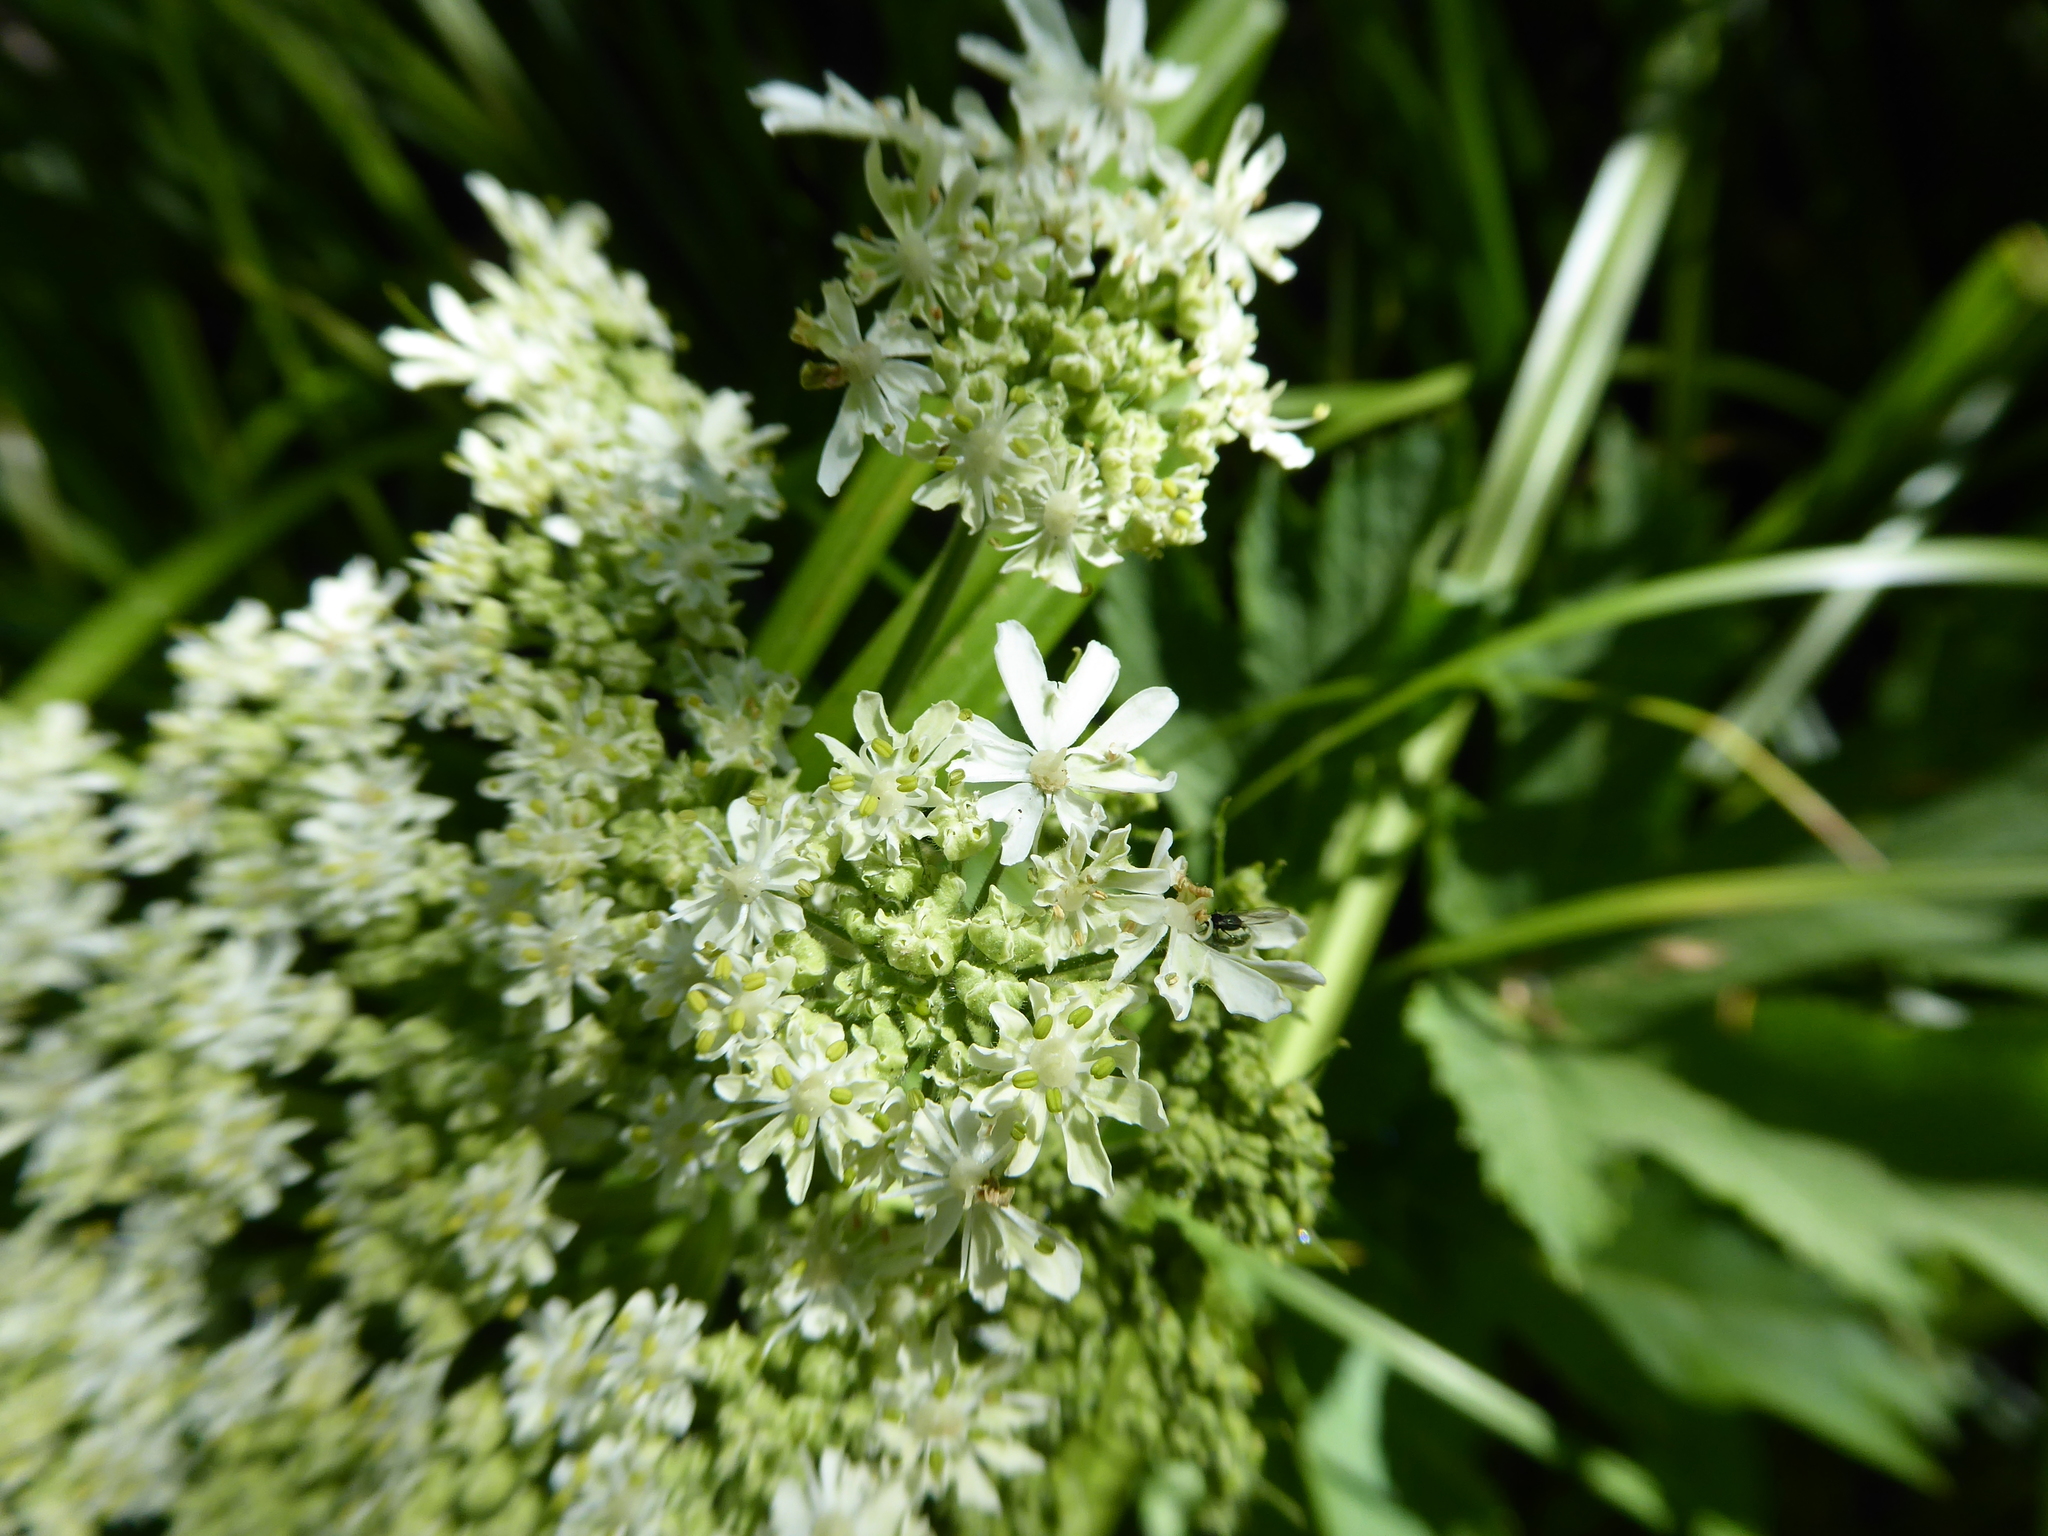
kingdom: Plantae
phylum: Tracheophyta
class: Magnoliopsida
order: Apiales
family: Apiaceae
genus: Heracleum
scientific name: Heracleum maximum
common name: American cow parsnip
